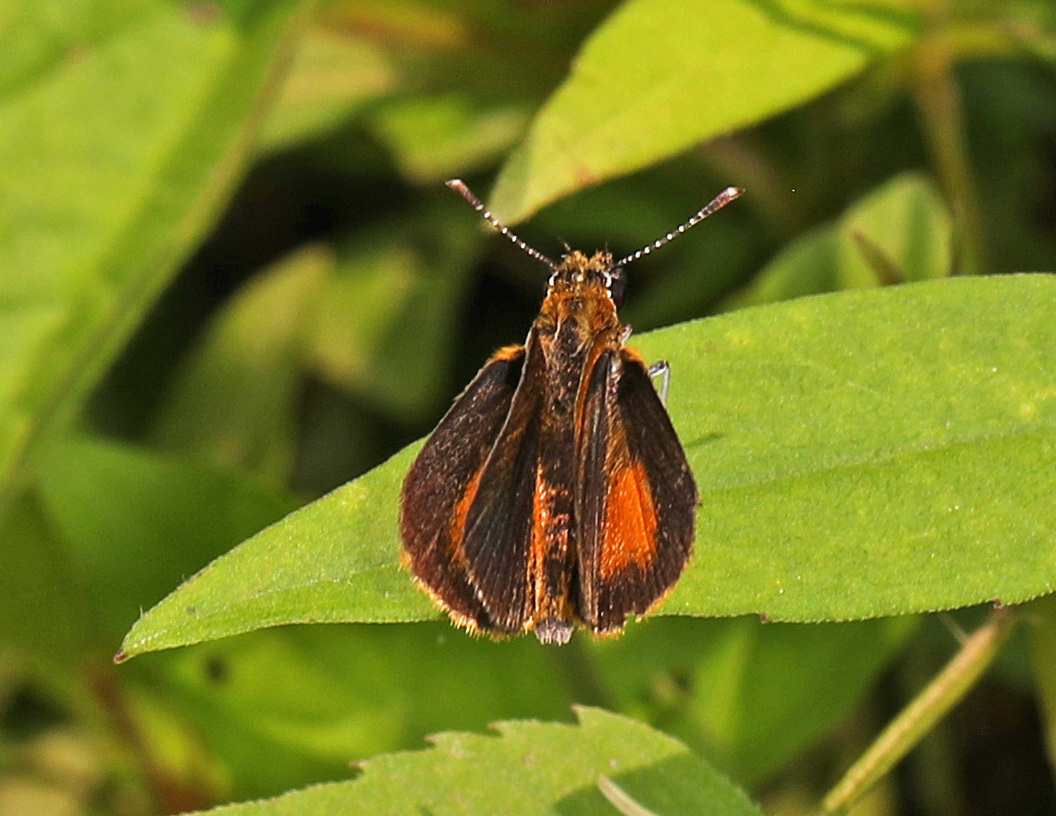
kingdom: Animalia
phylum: Arthropoda
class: Insecta
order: Lepidoptera
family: Hesperiidae
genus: Ancyloxypha
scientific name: Ancyloxypha numitor
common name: Least skipper
